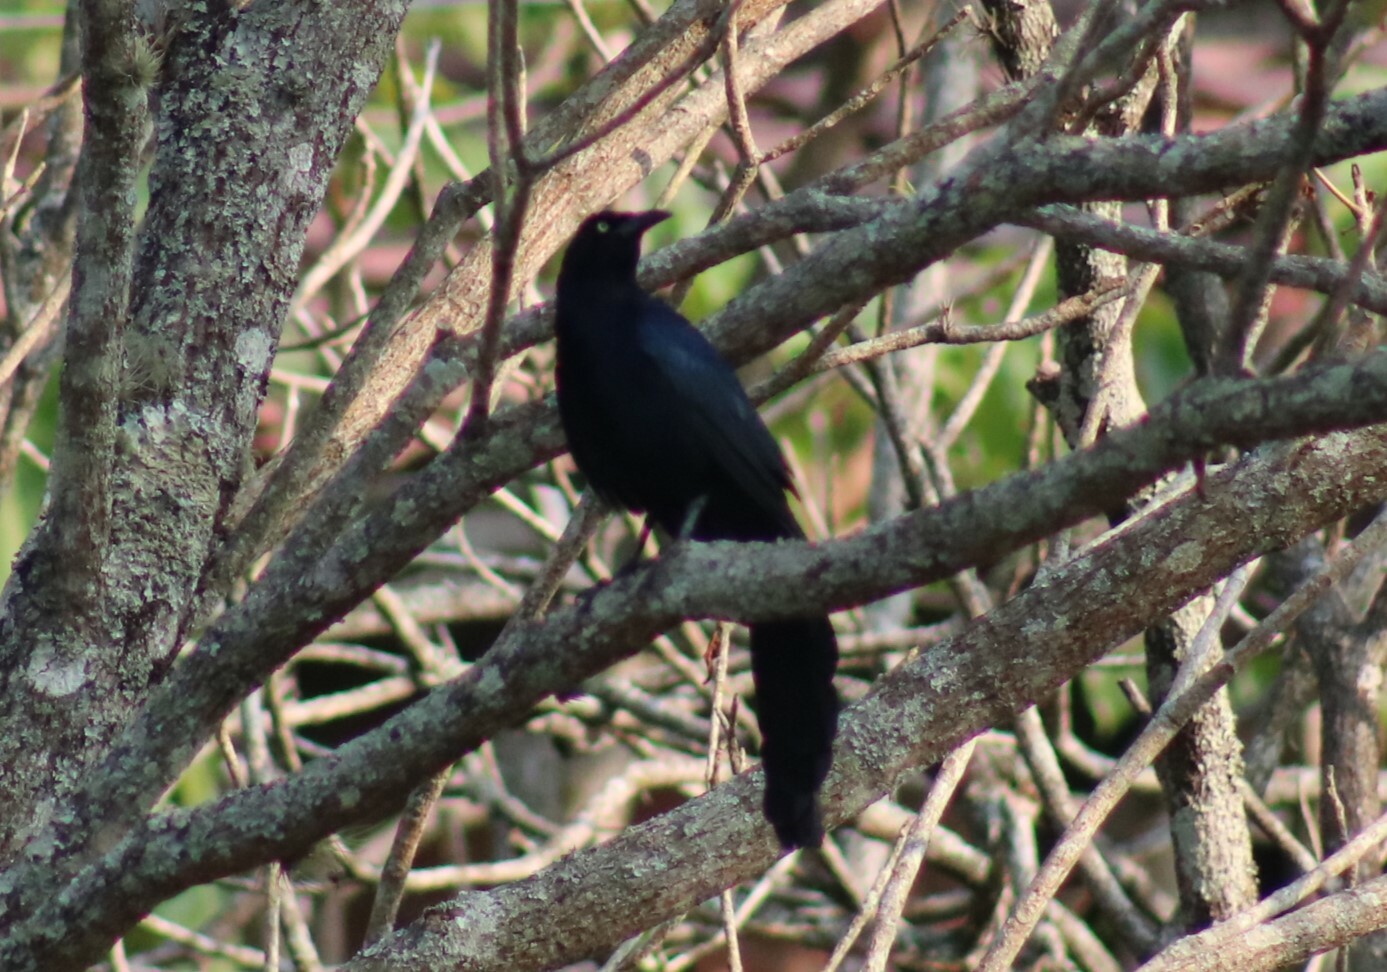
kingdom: Animalia
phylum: Chordata
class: Aves
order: Passeriformes
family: Icteridae
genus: Quiscalus
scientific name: Quiscalus mexicanus
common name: Great-tailed grackle
